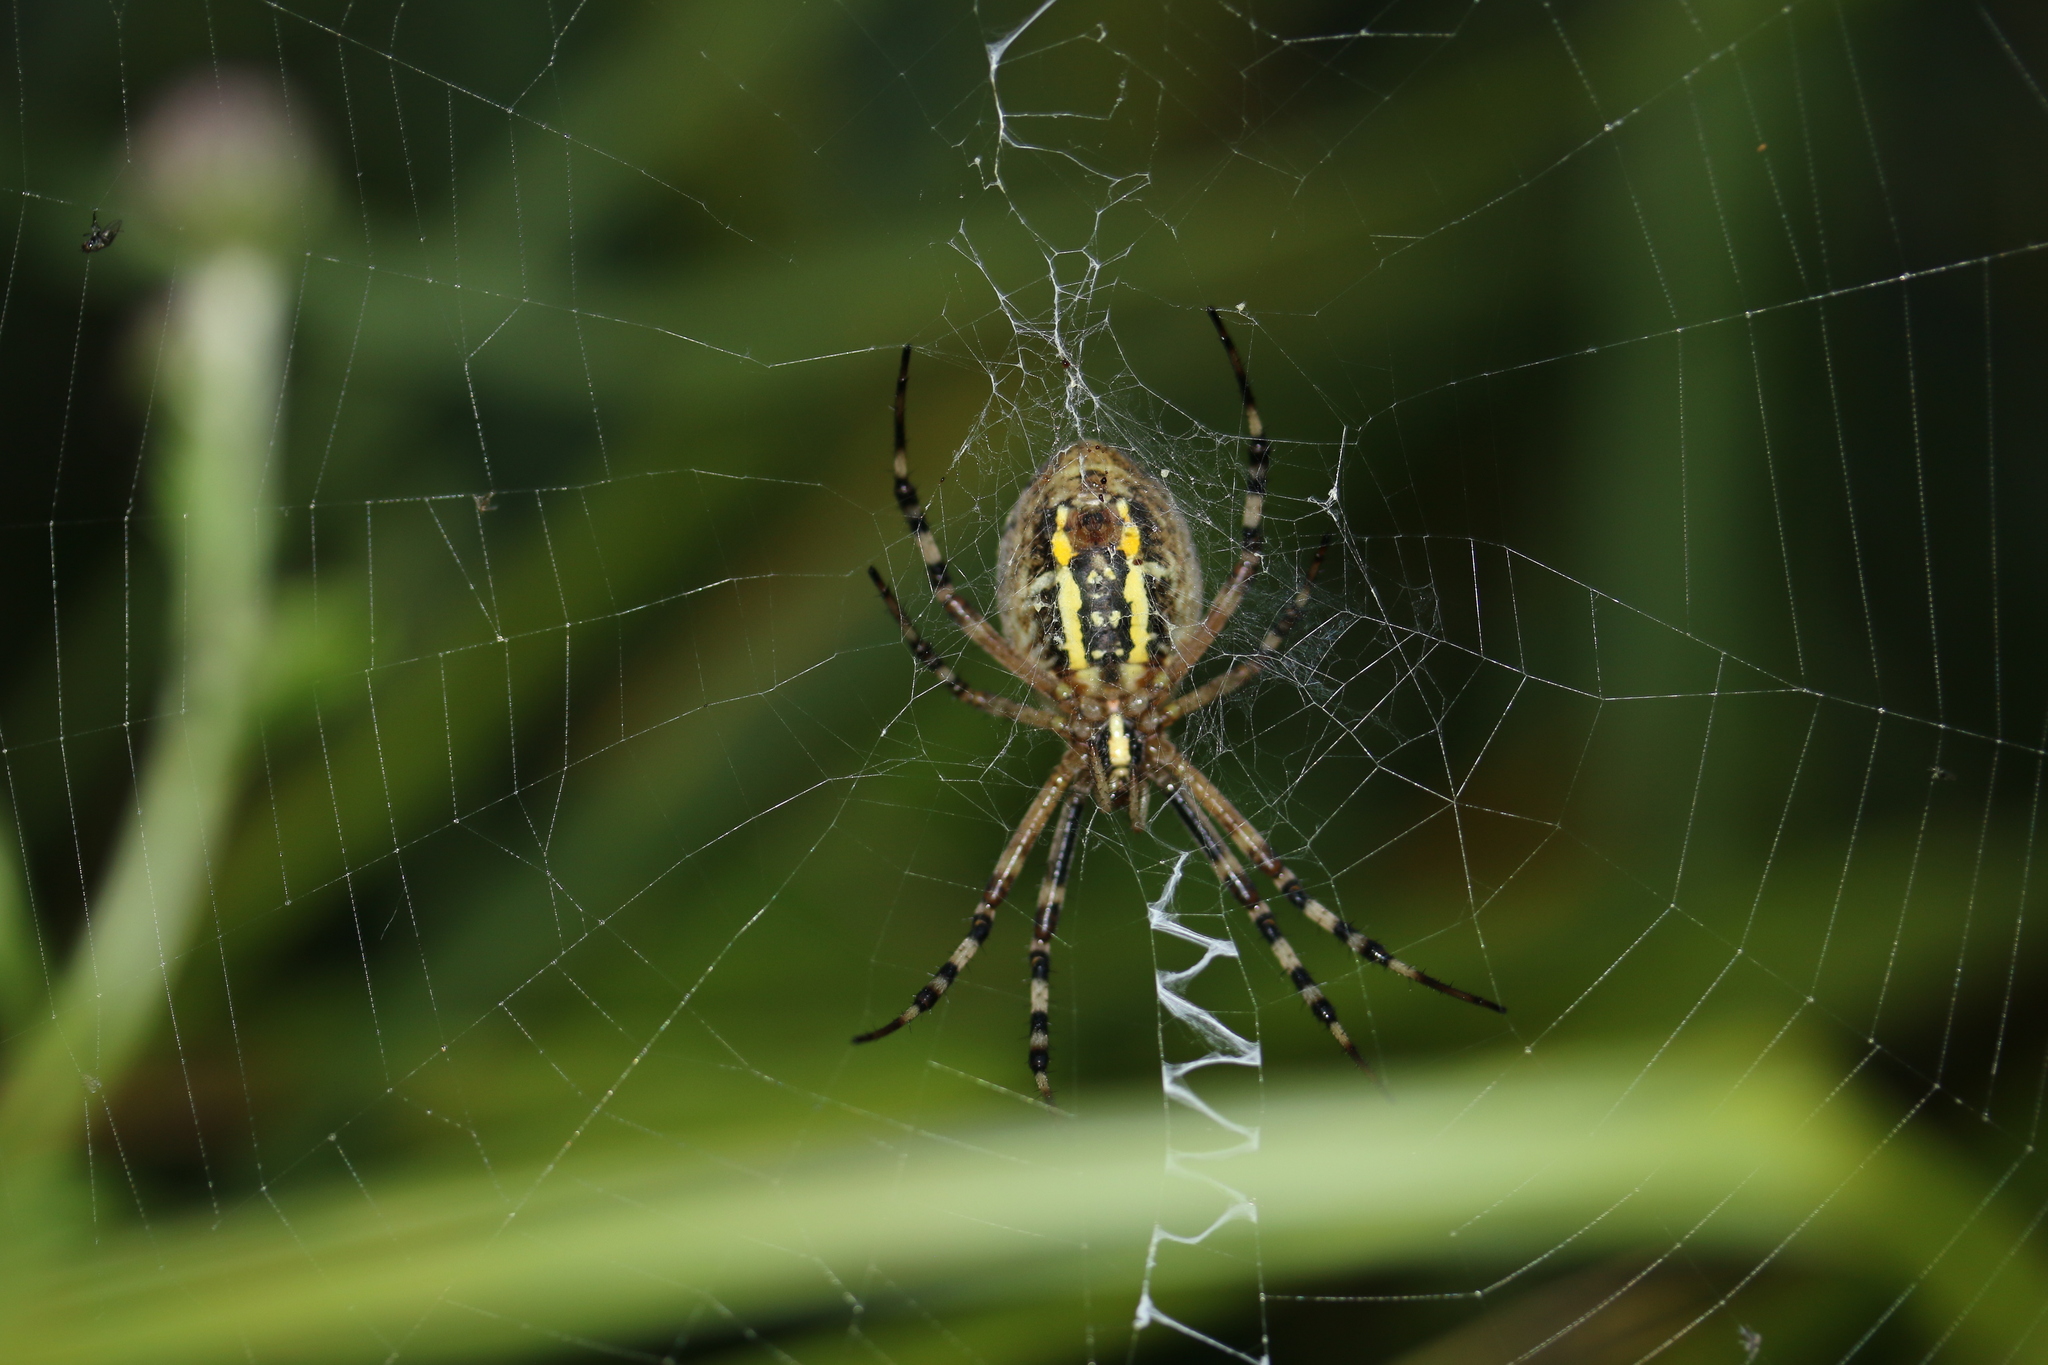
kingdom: Animalia
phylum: Arthropoda
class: Arachnida
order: Araneae
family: Araneidae
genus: Argiope
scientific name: Argiope bruennichi
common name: Wasp spider
